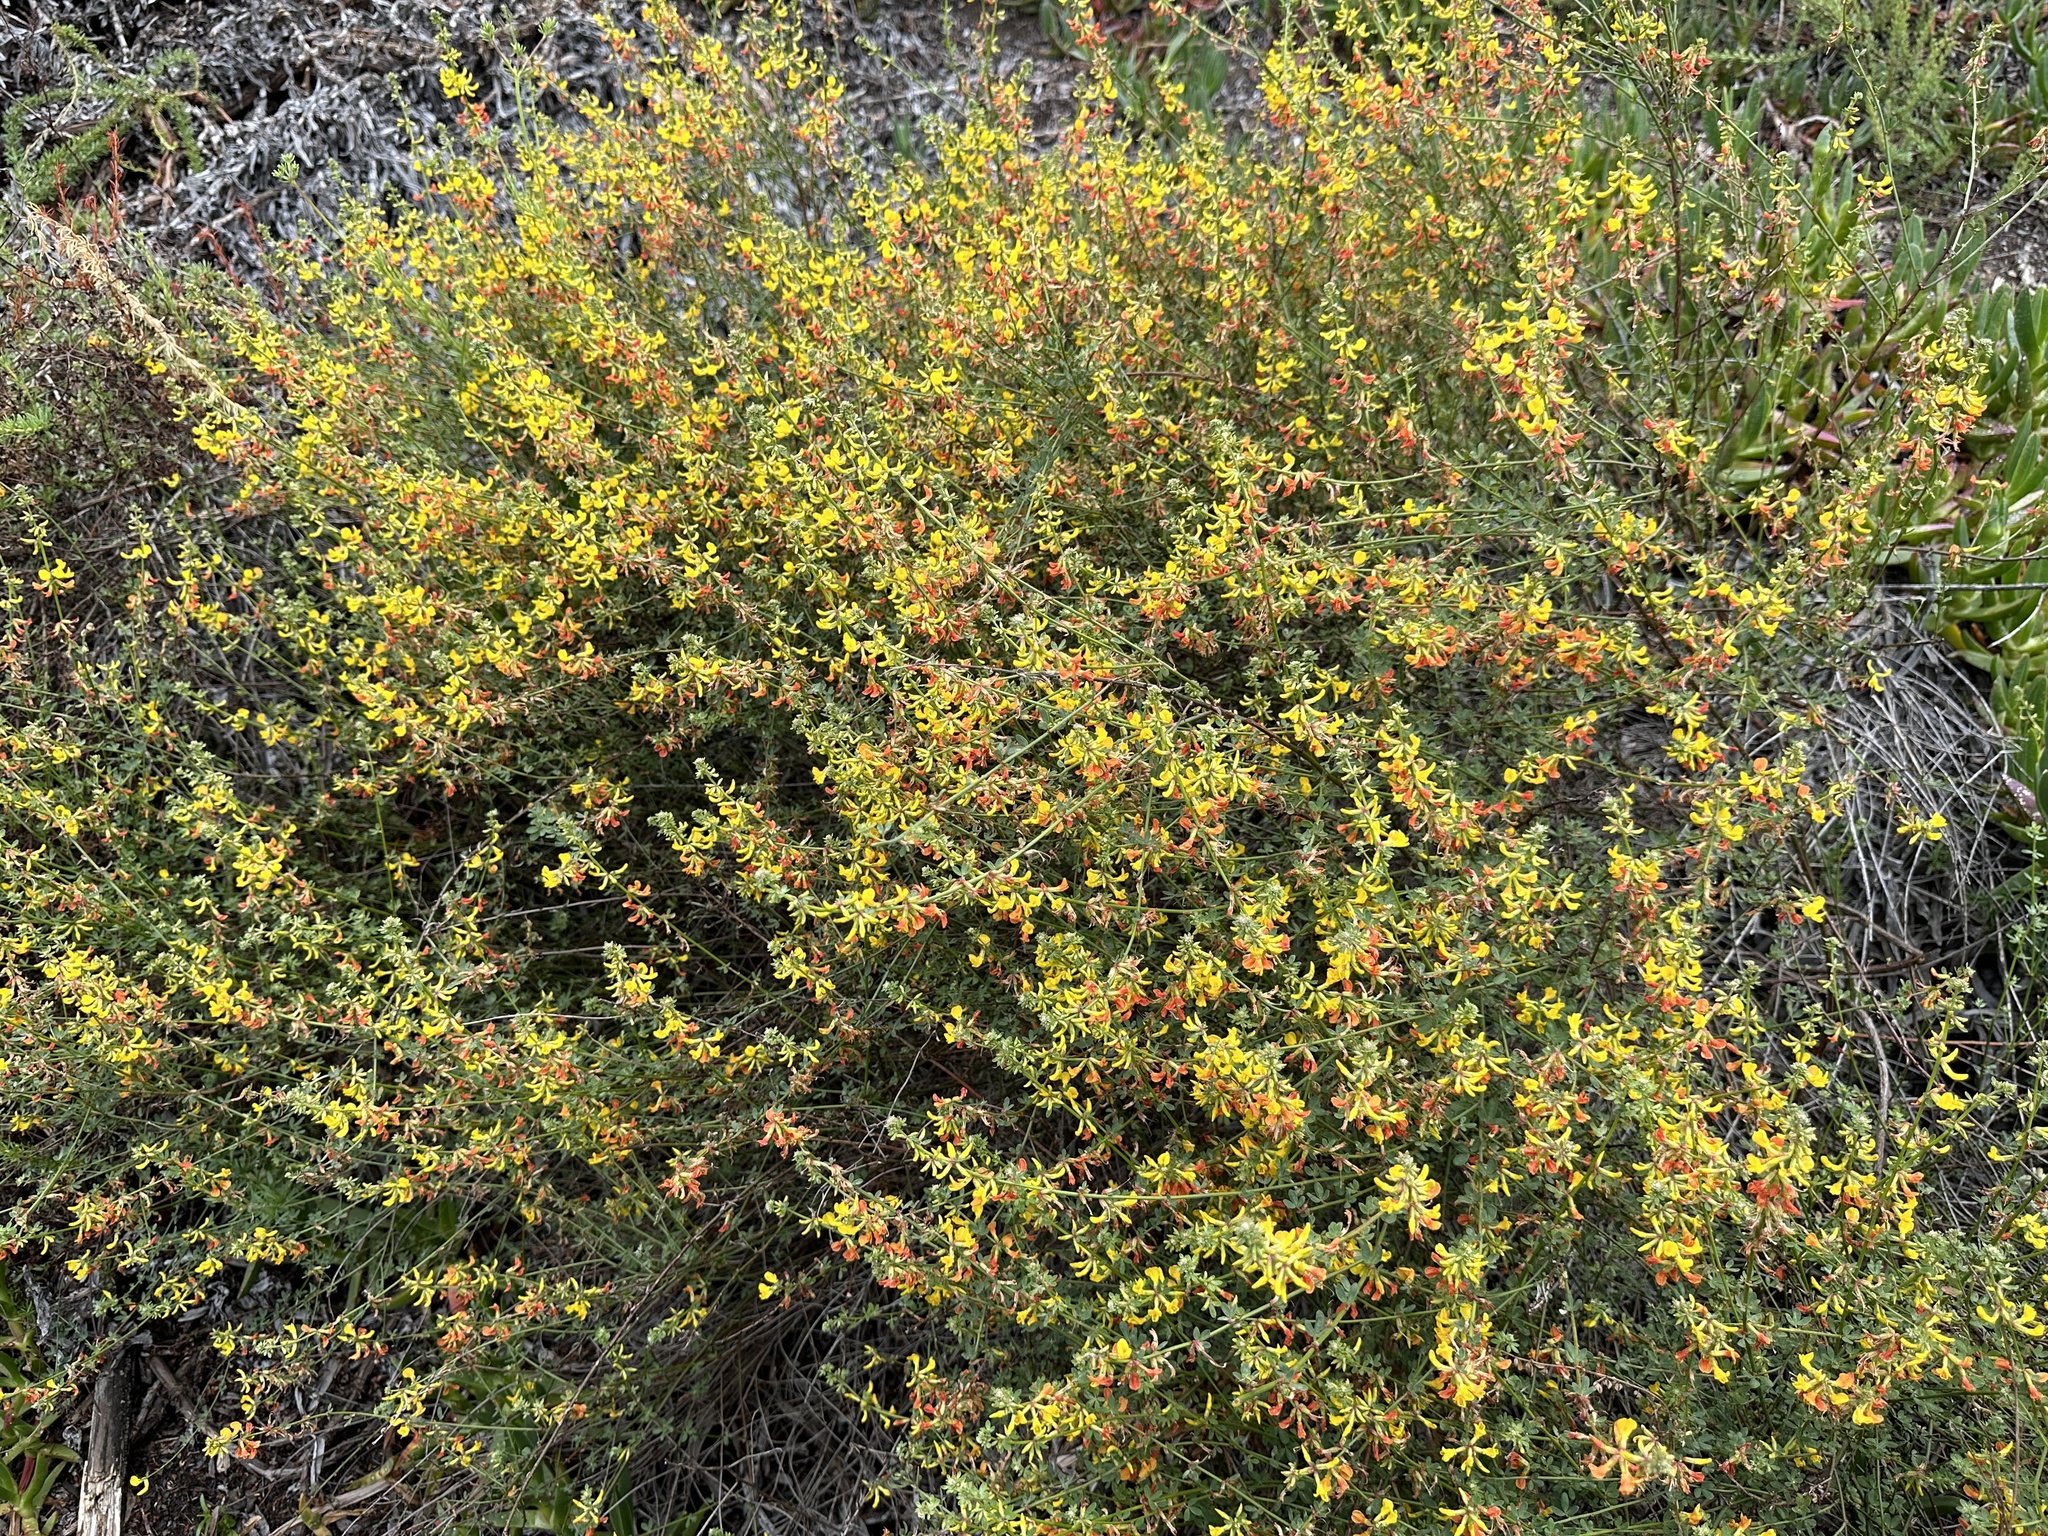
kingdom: Plantae
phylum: Tracheophyta
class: Magnoliopsida
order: Fabales
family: Fabaceae
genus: Acmispon
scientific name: Acmispon glaber
